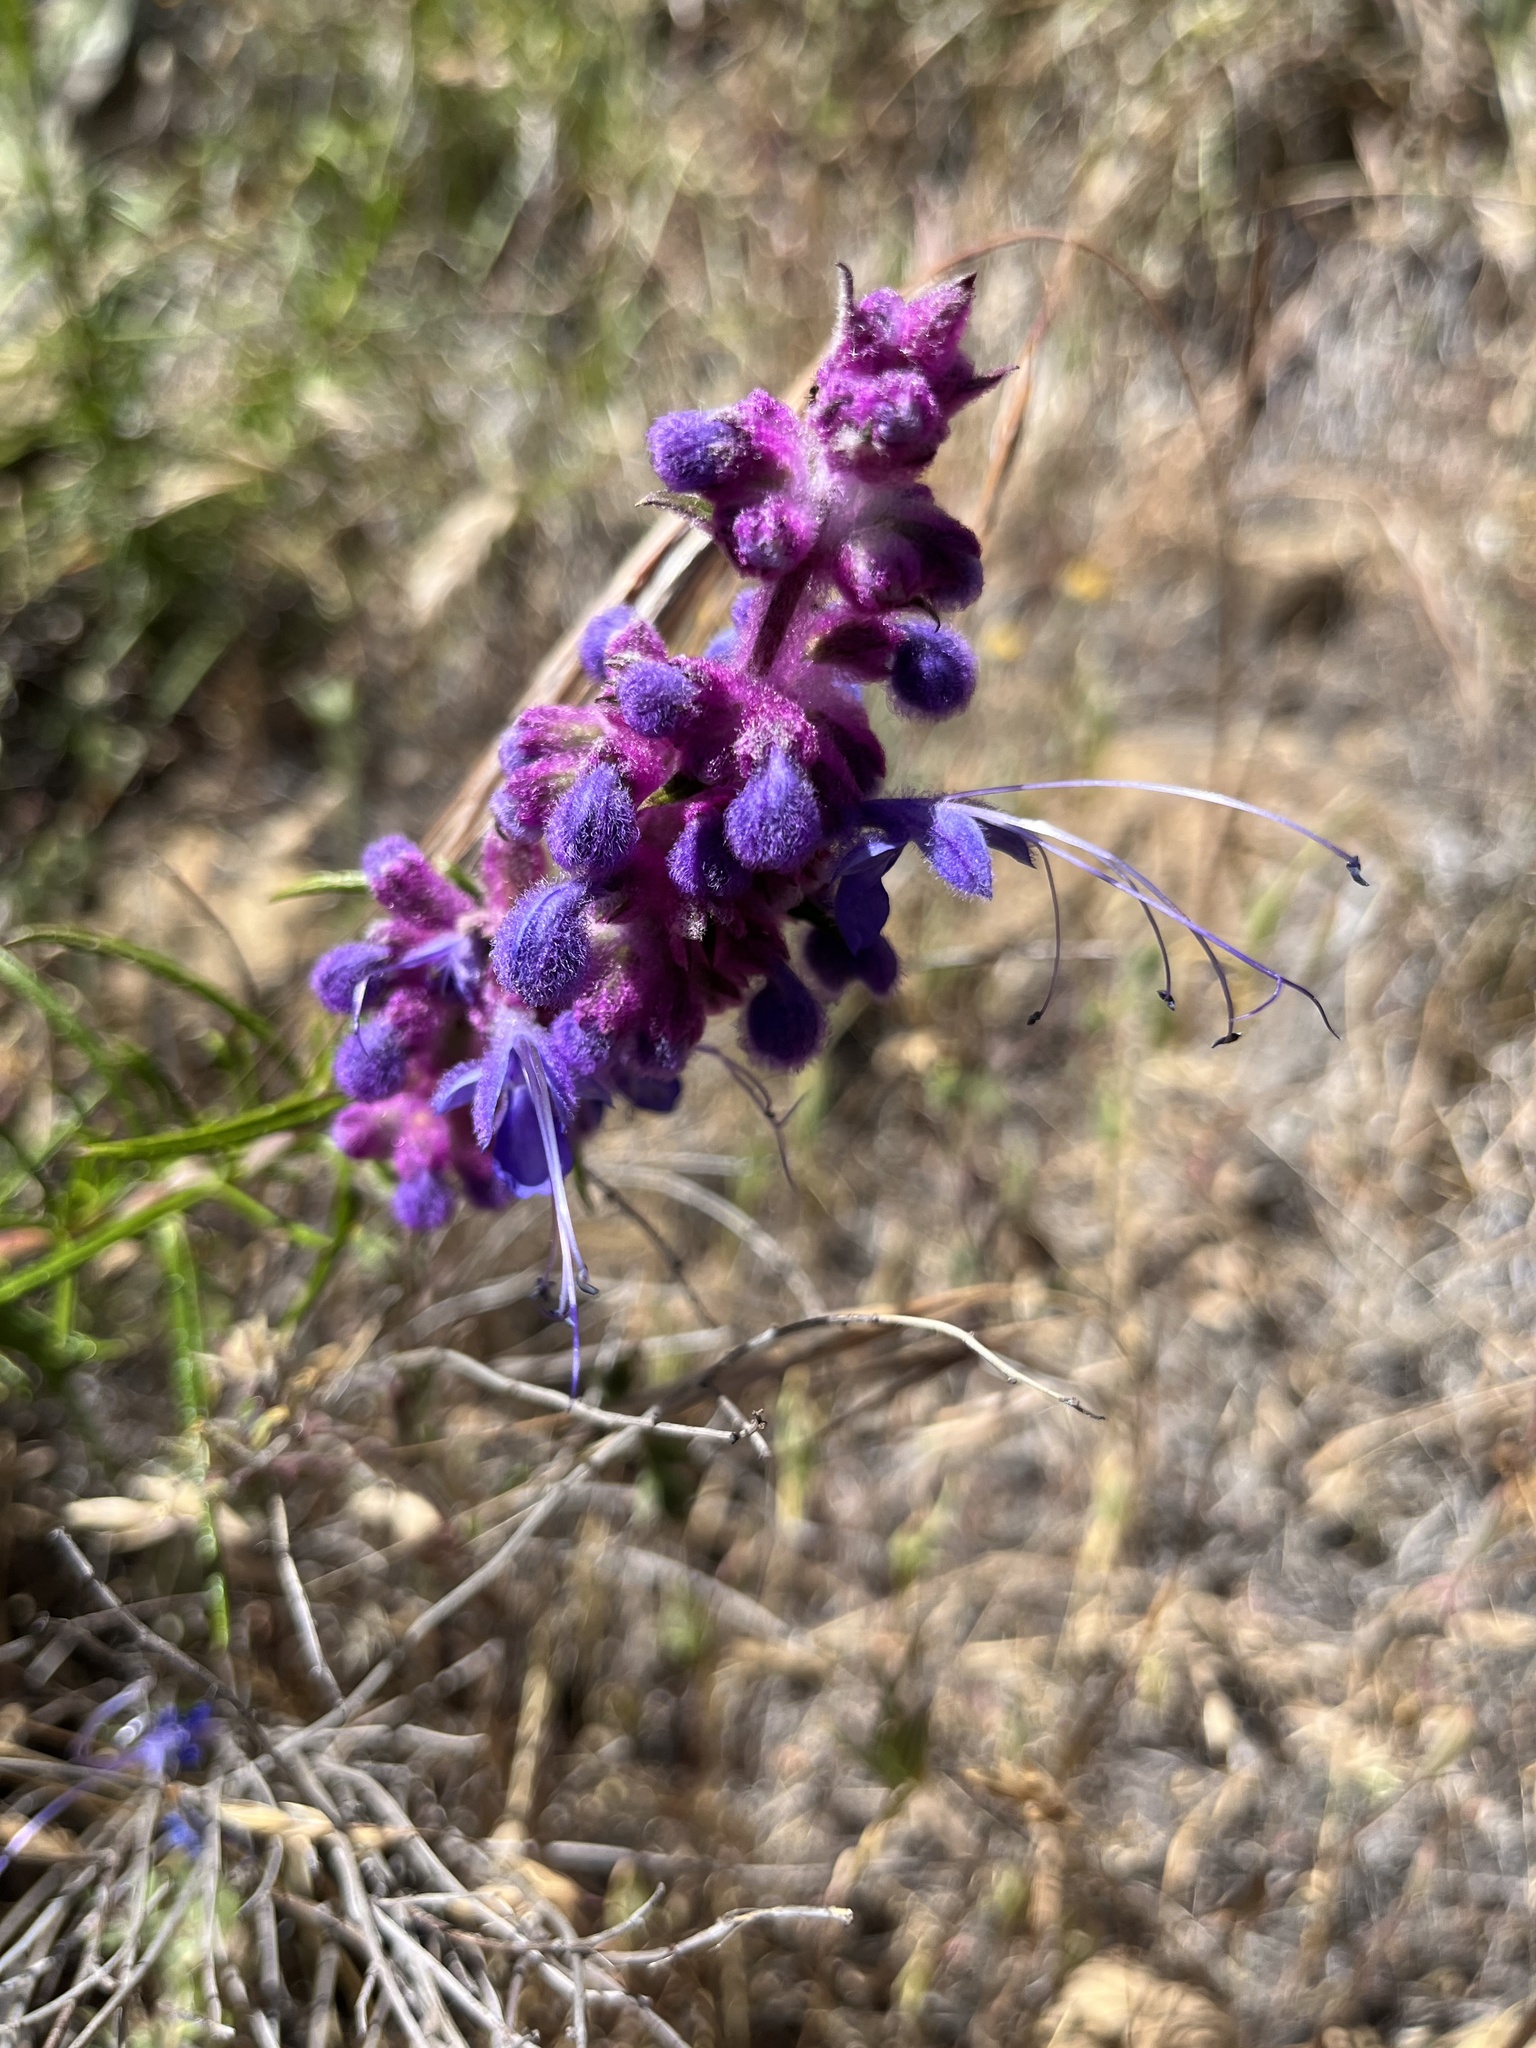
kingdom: Plantae
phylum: Tracheophyta
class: Magnoliopsida
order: Lamiales
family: Lamiaceae
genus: Trichostema
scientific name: Trichostema lanatum
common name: Woolly bluecurls
